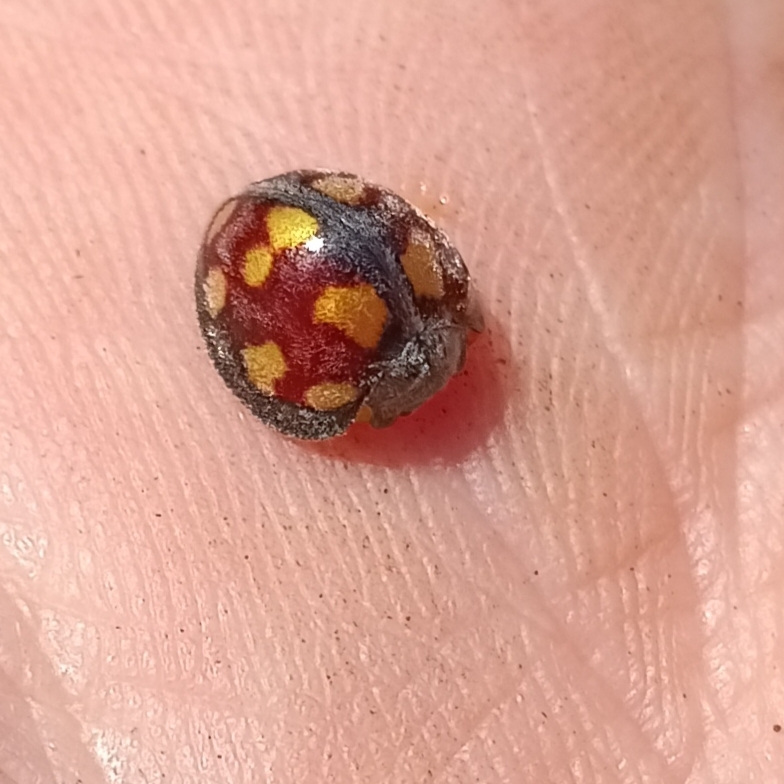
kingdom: Animalia
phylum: Arthropoda
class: Insecta
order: Coleoptera
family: Coccinellidae
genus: Chnootriba
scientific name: Chnootriba
